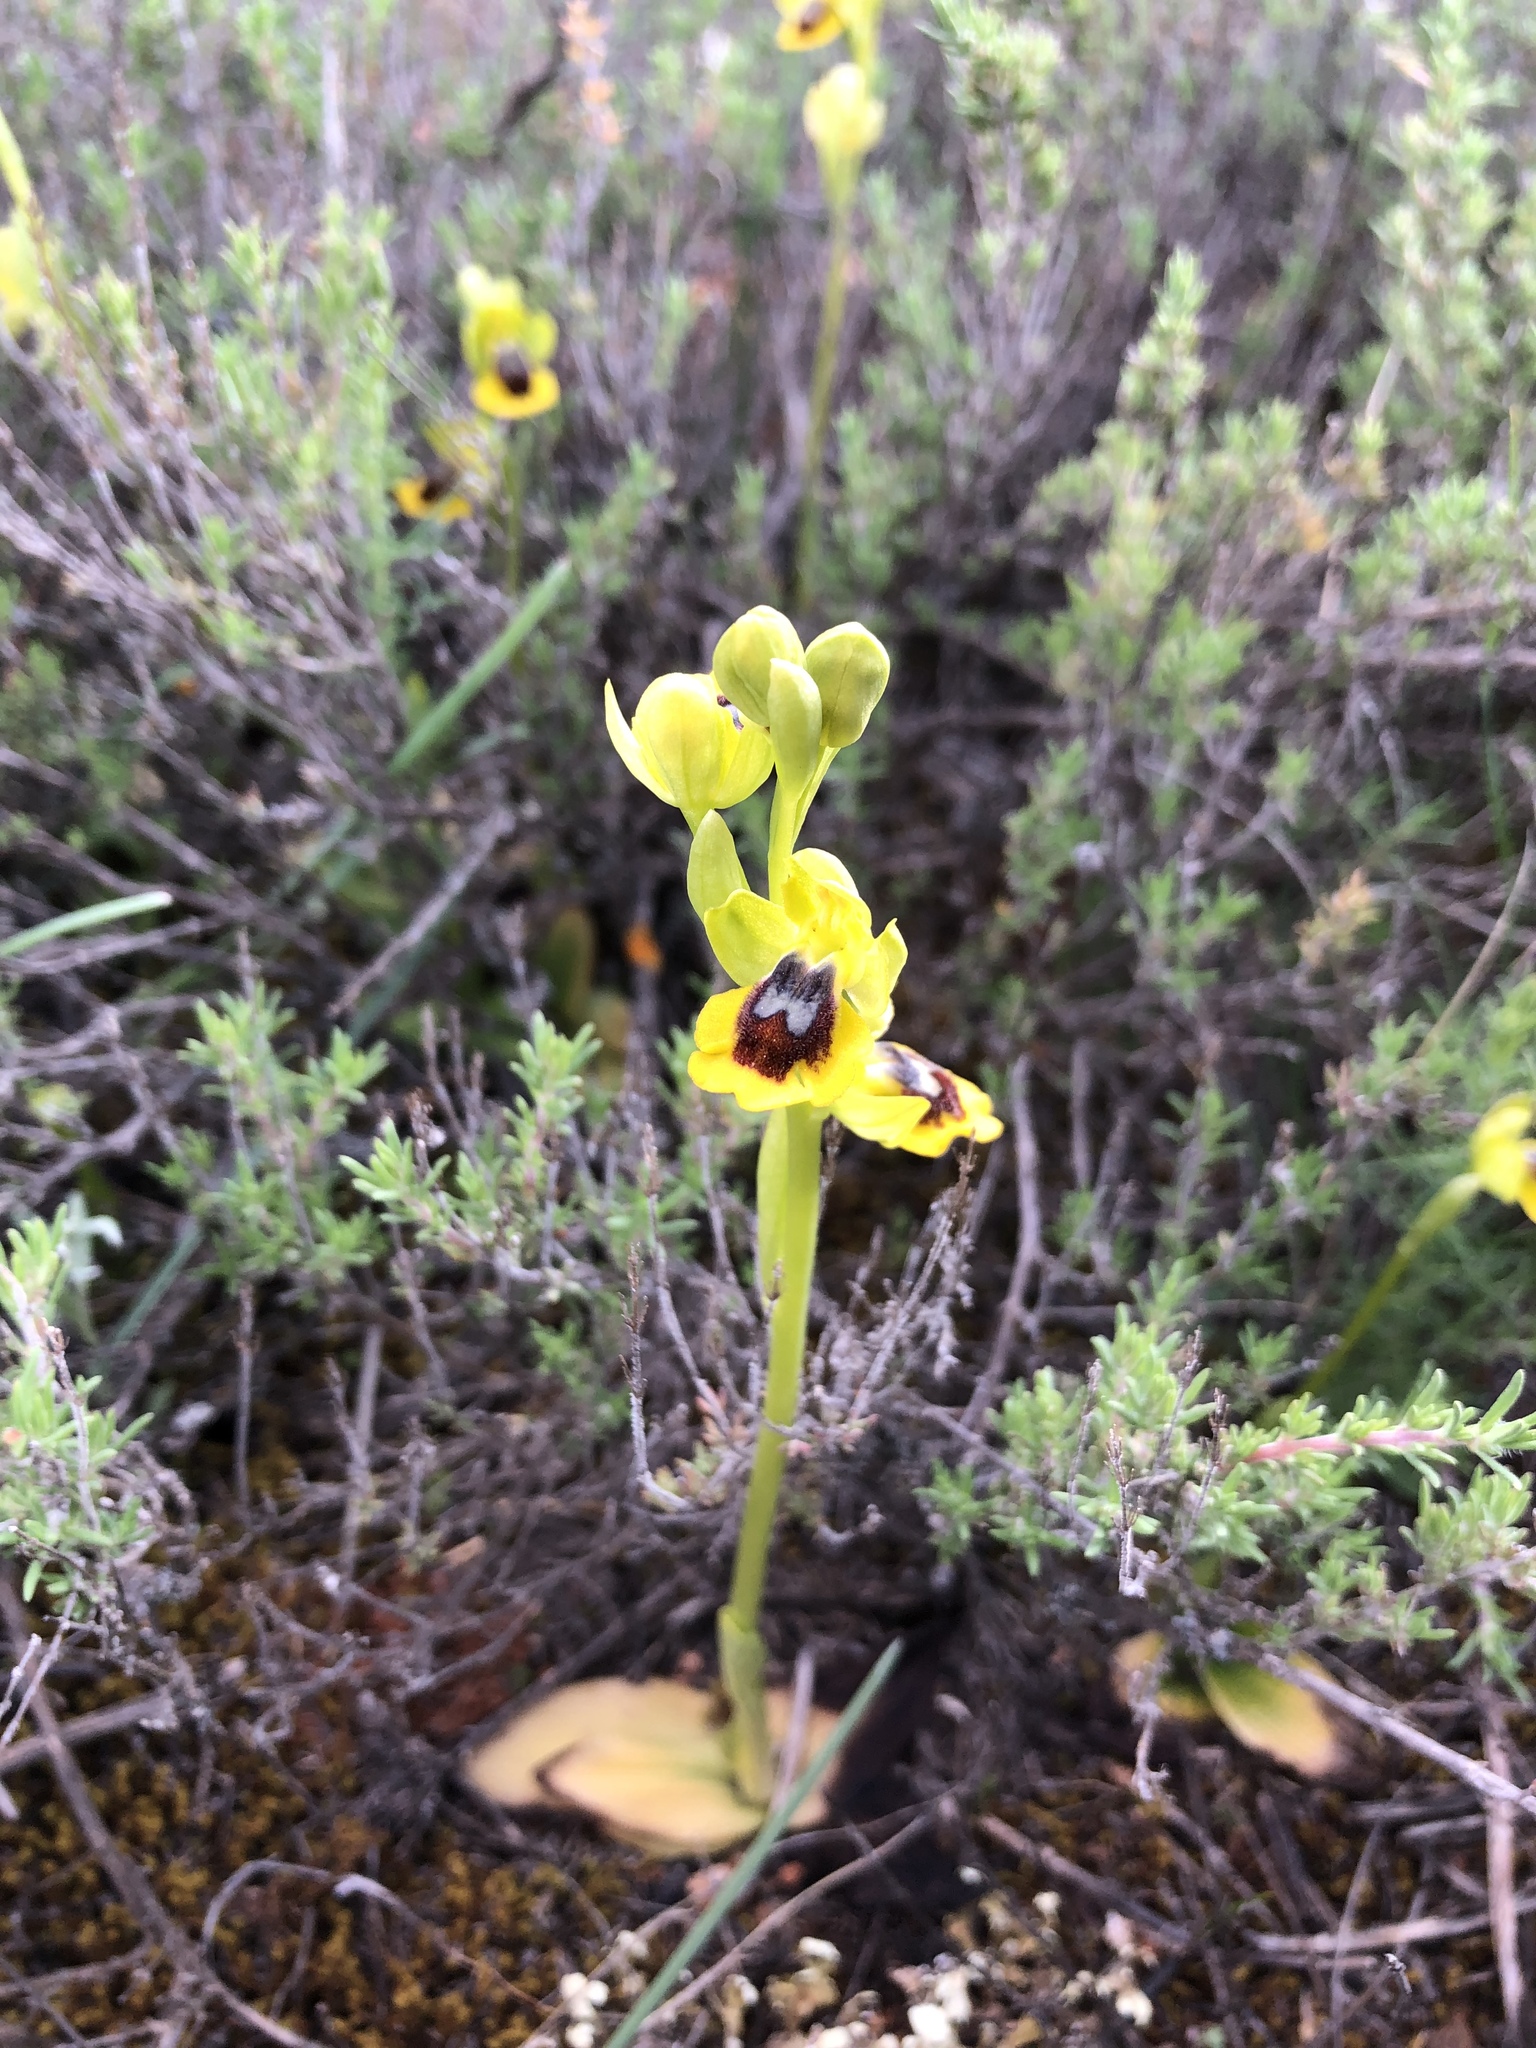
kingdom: Plantae
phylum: Tracheophyta
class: Liliopsida
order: Asparagales
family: Orchidaceae
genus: Ophrys
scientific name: Ophrys lutea
